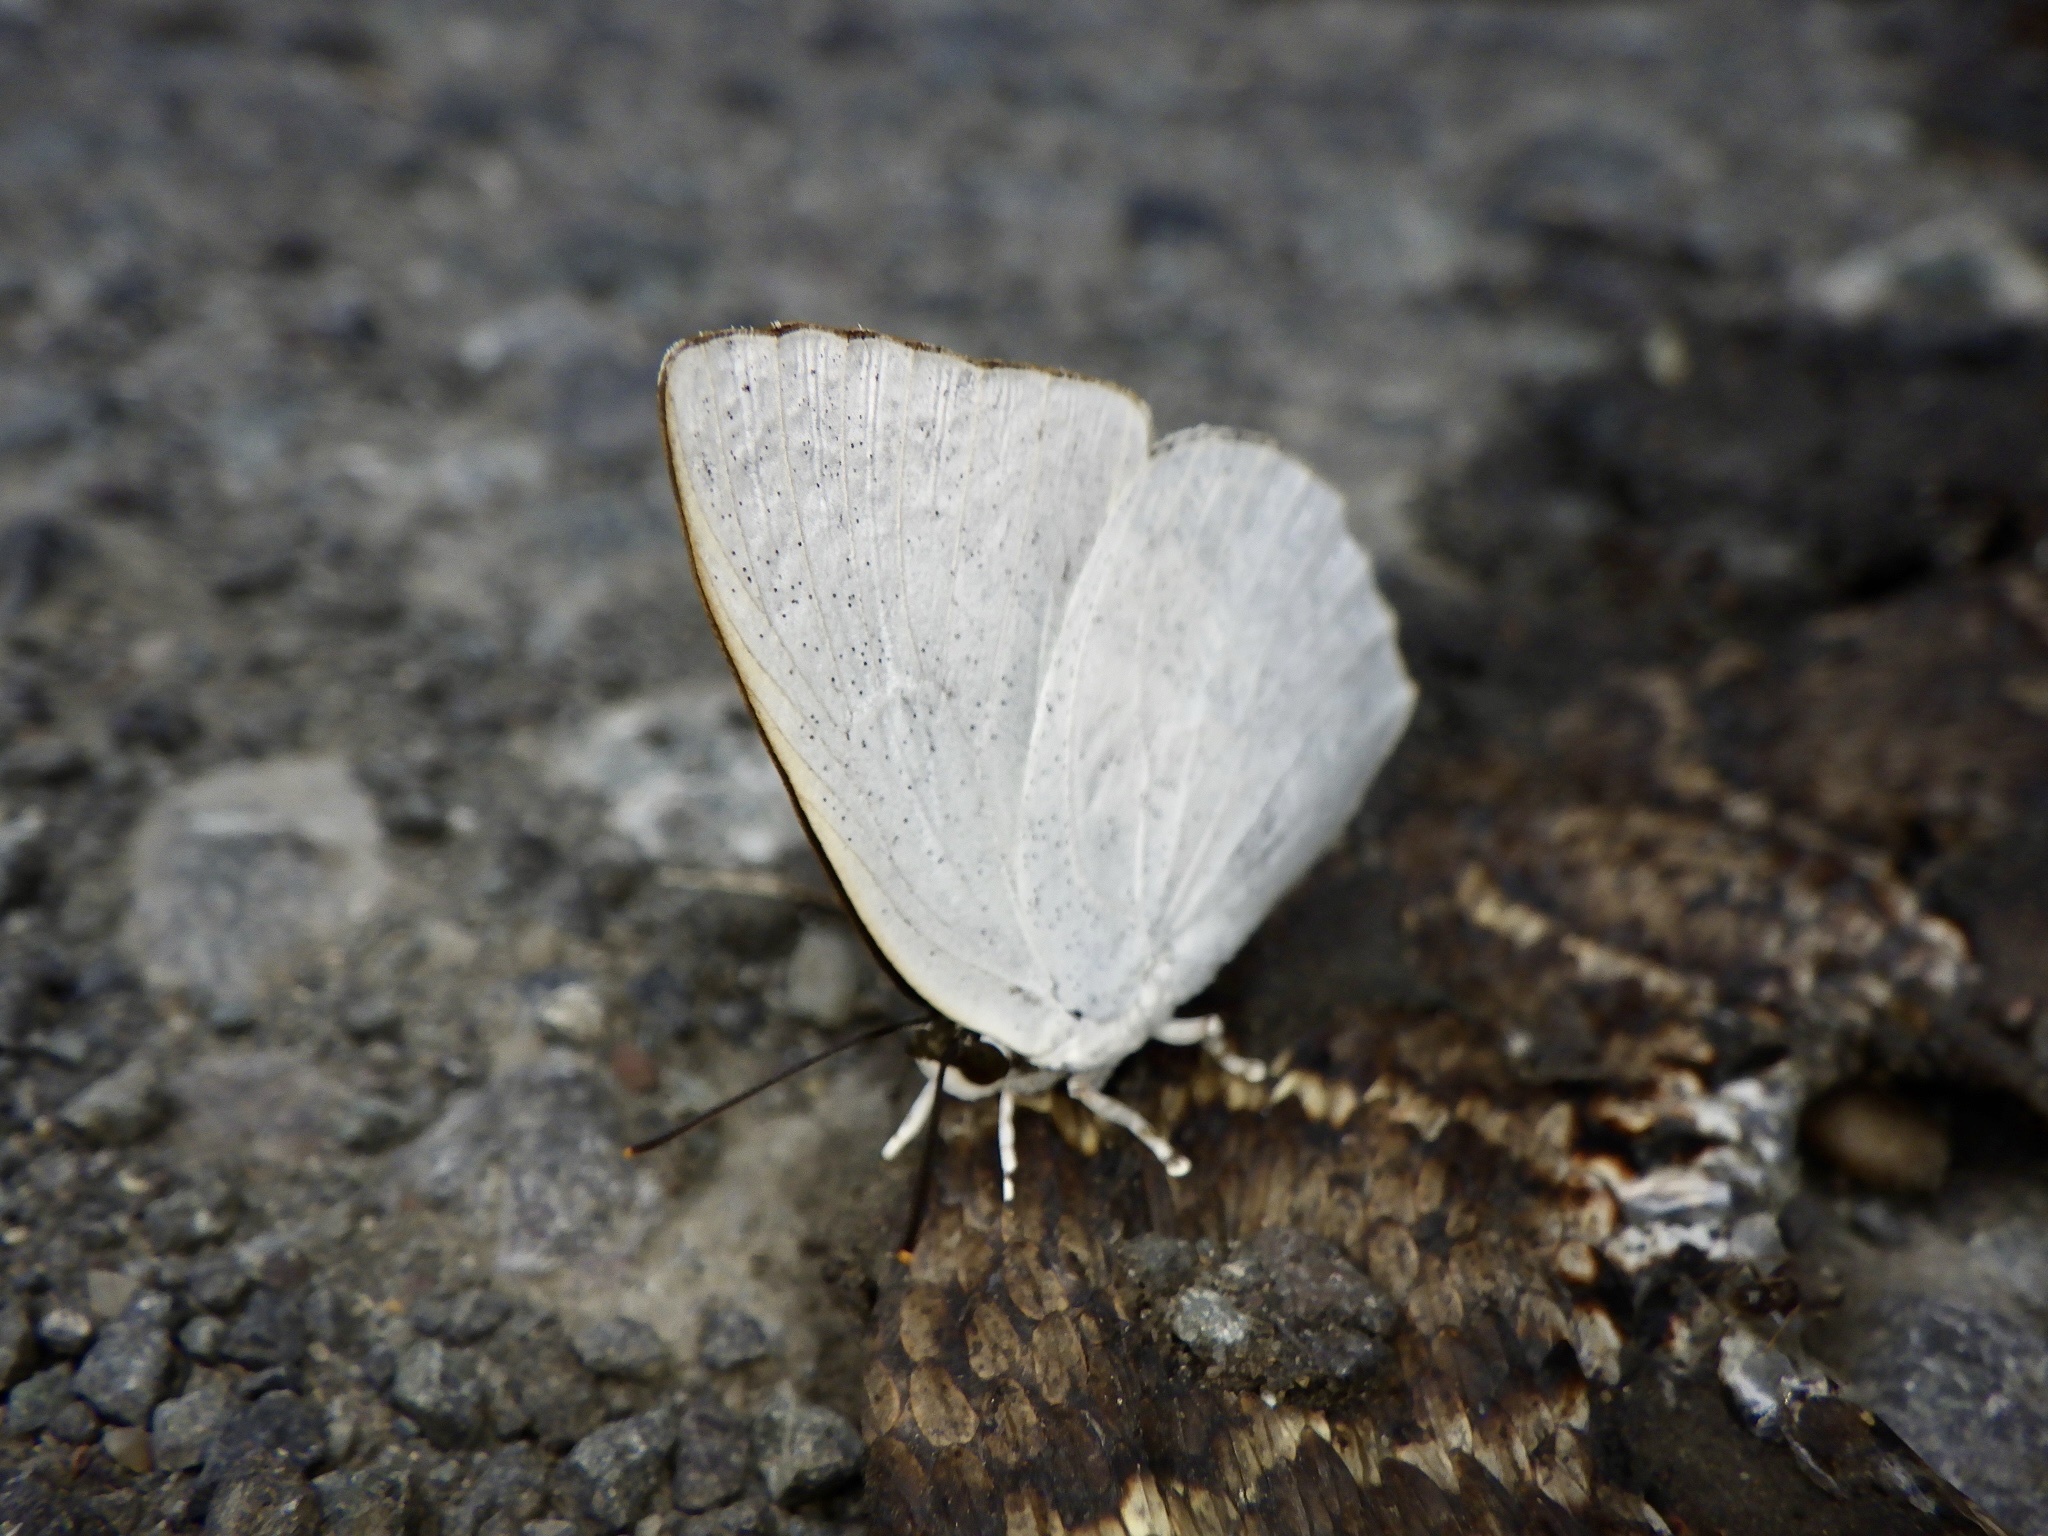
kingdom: Animalia
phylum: Arthropoda
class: Insecta
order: Lepidoptera
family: Lycaenidae
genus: Curetis
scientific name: Curetis acuta
